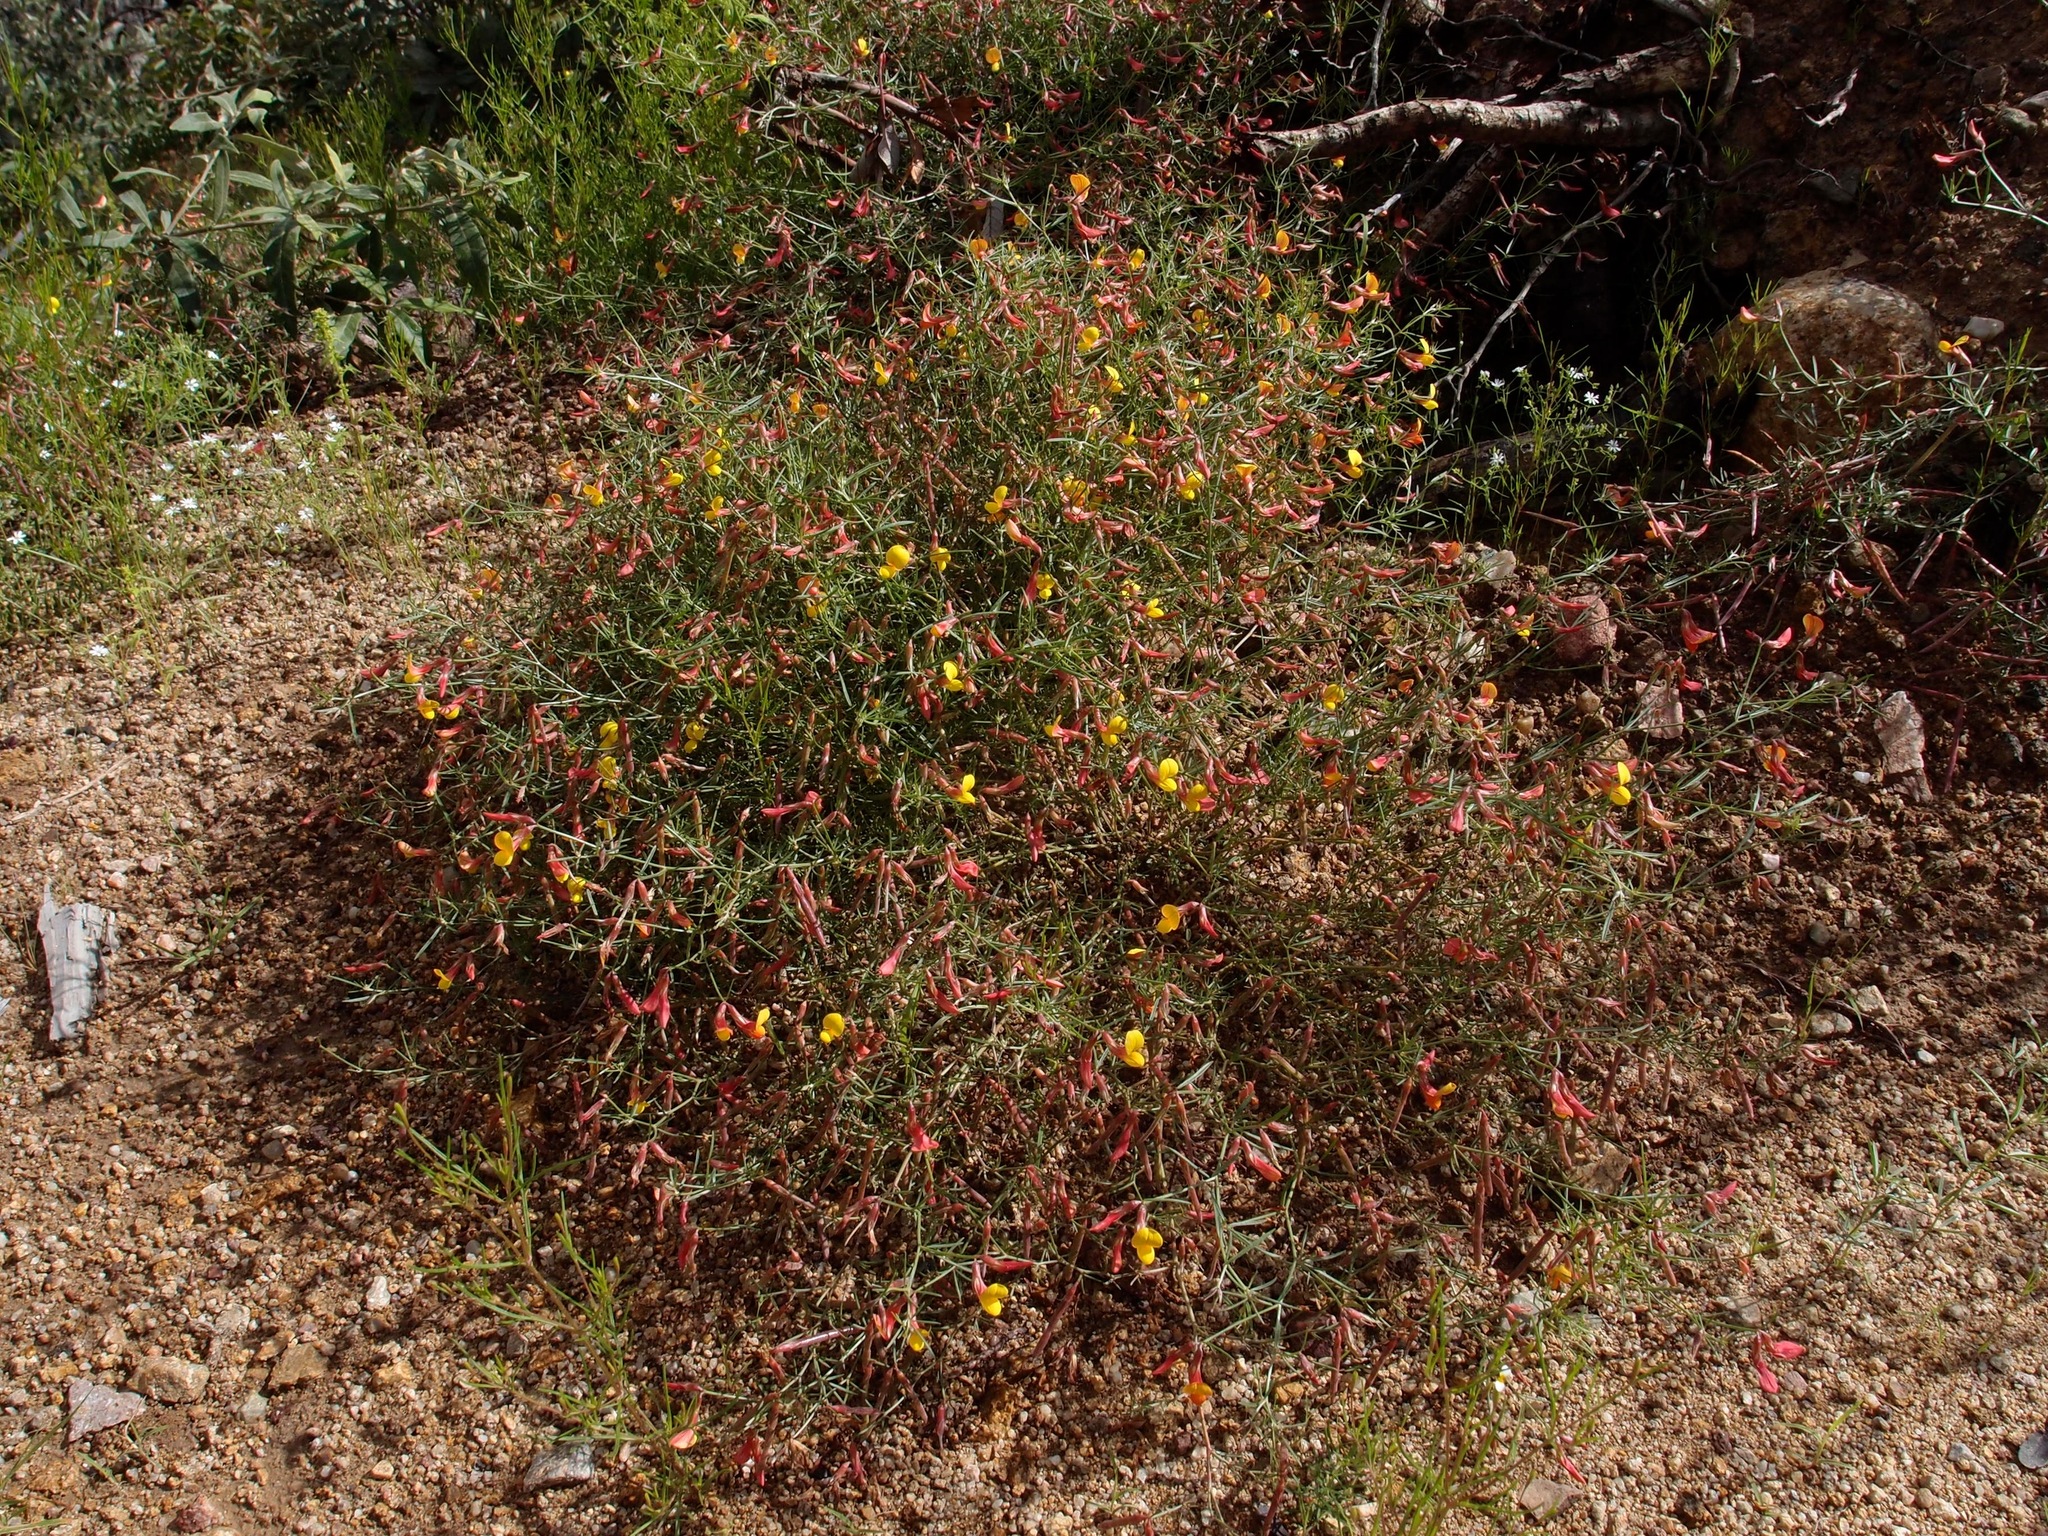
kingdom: Plantae
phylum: Tracheophyta
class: Magnoliopsida
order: Fabales
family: Fabaceae
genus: Acmispon
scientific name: Acmispon oroboides
